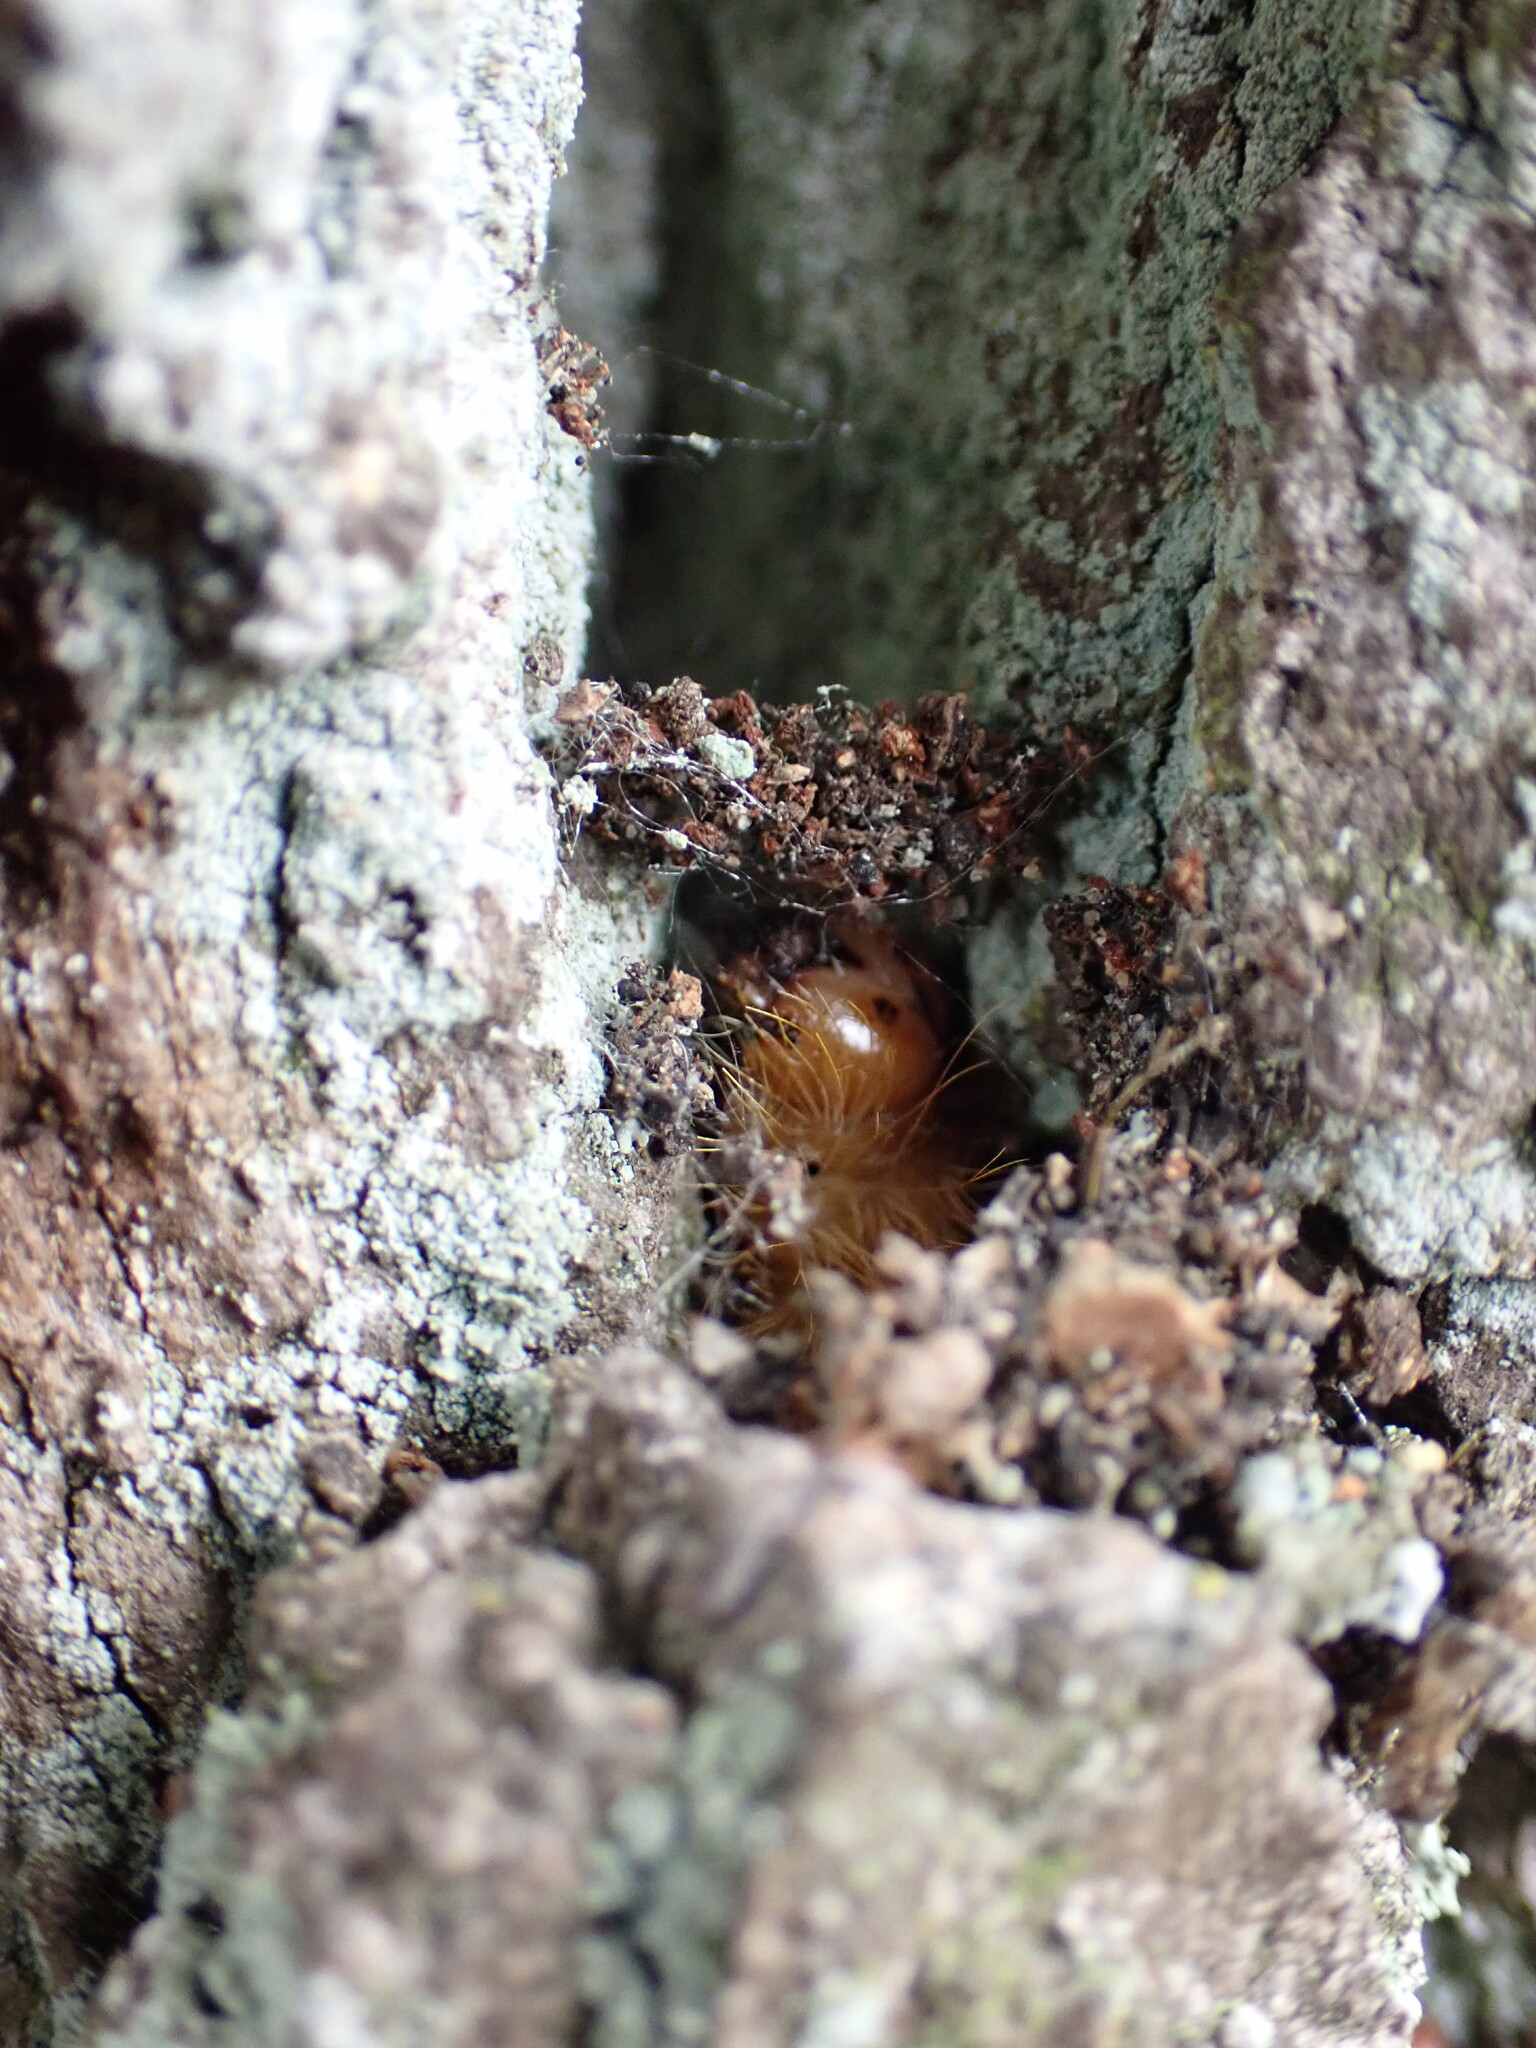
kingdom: Animalia
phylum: Arthropoda
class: Insecta
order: Lepidoptera
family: Noctuidae
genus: Acronicta
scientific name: Acronicta aceris
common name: Sycamore
